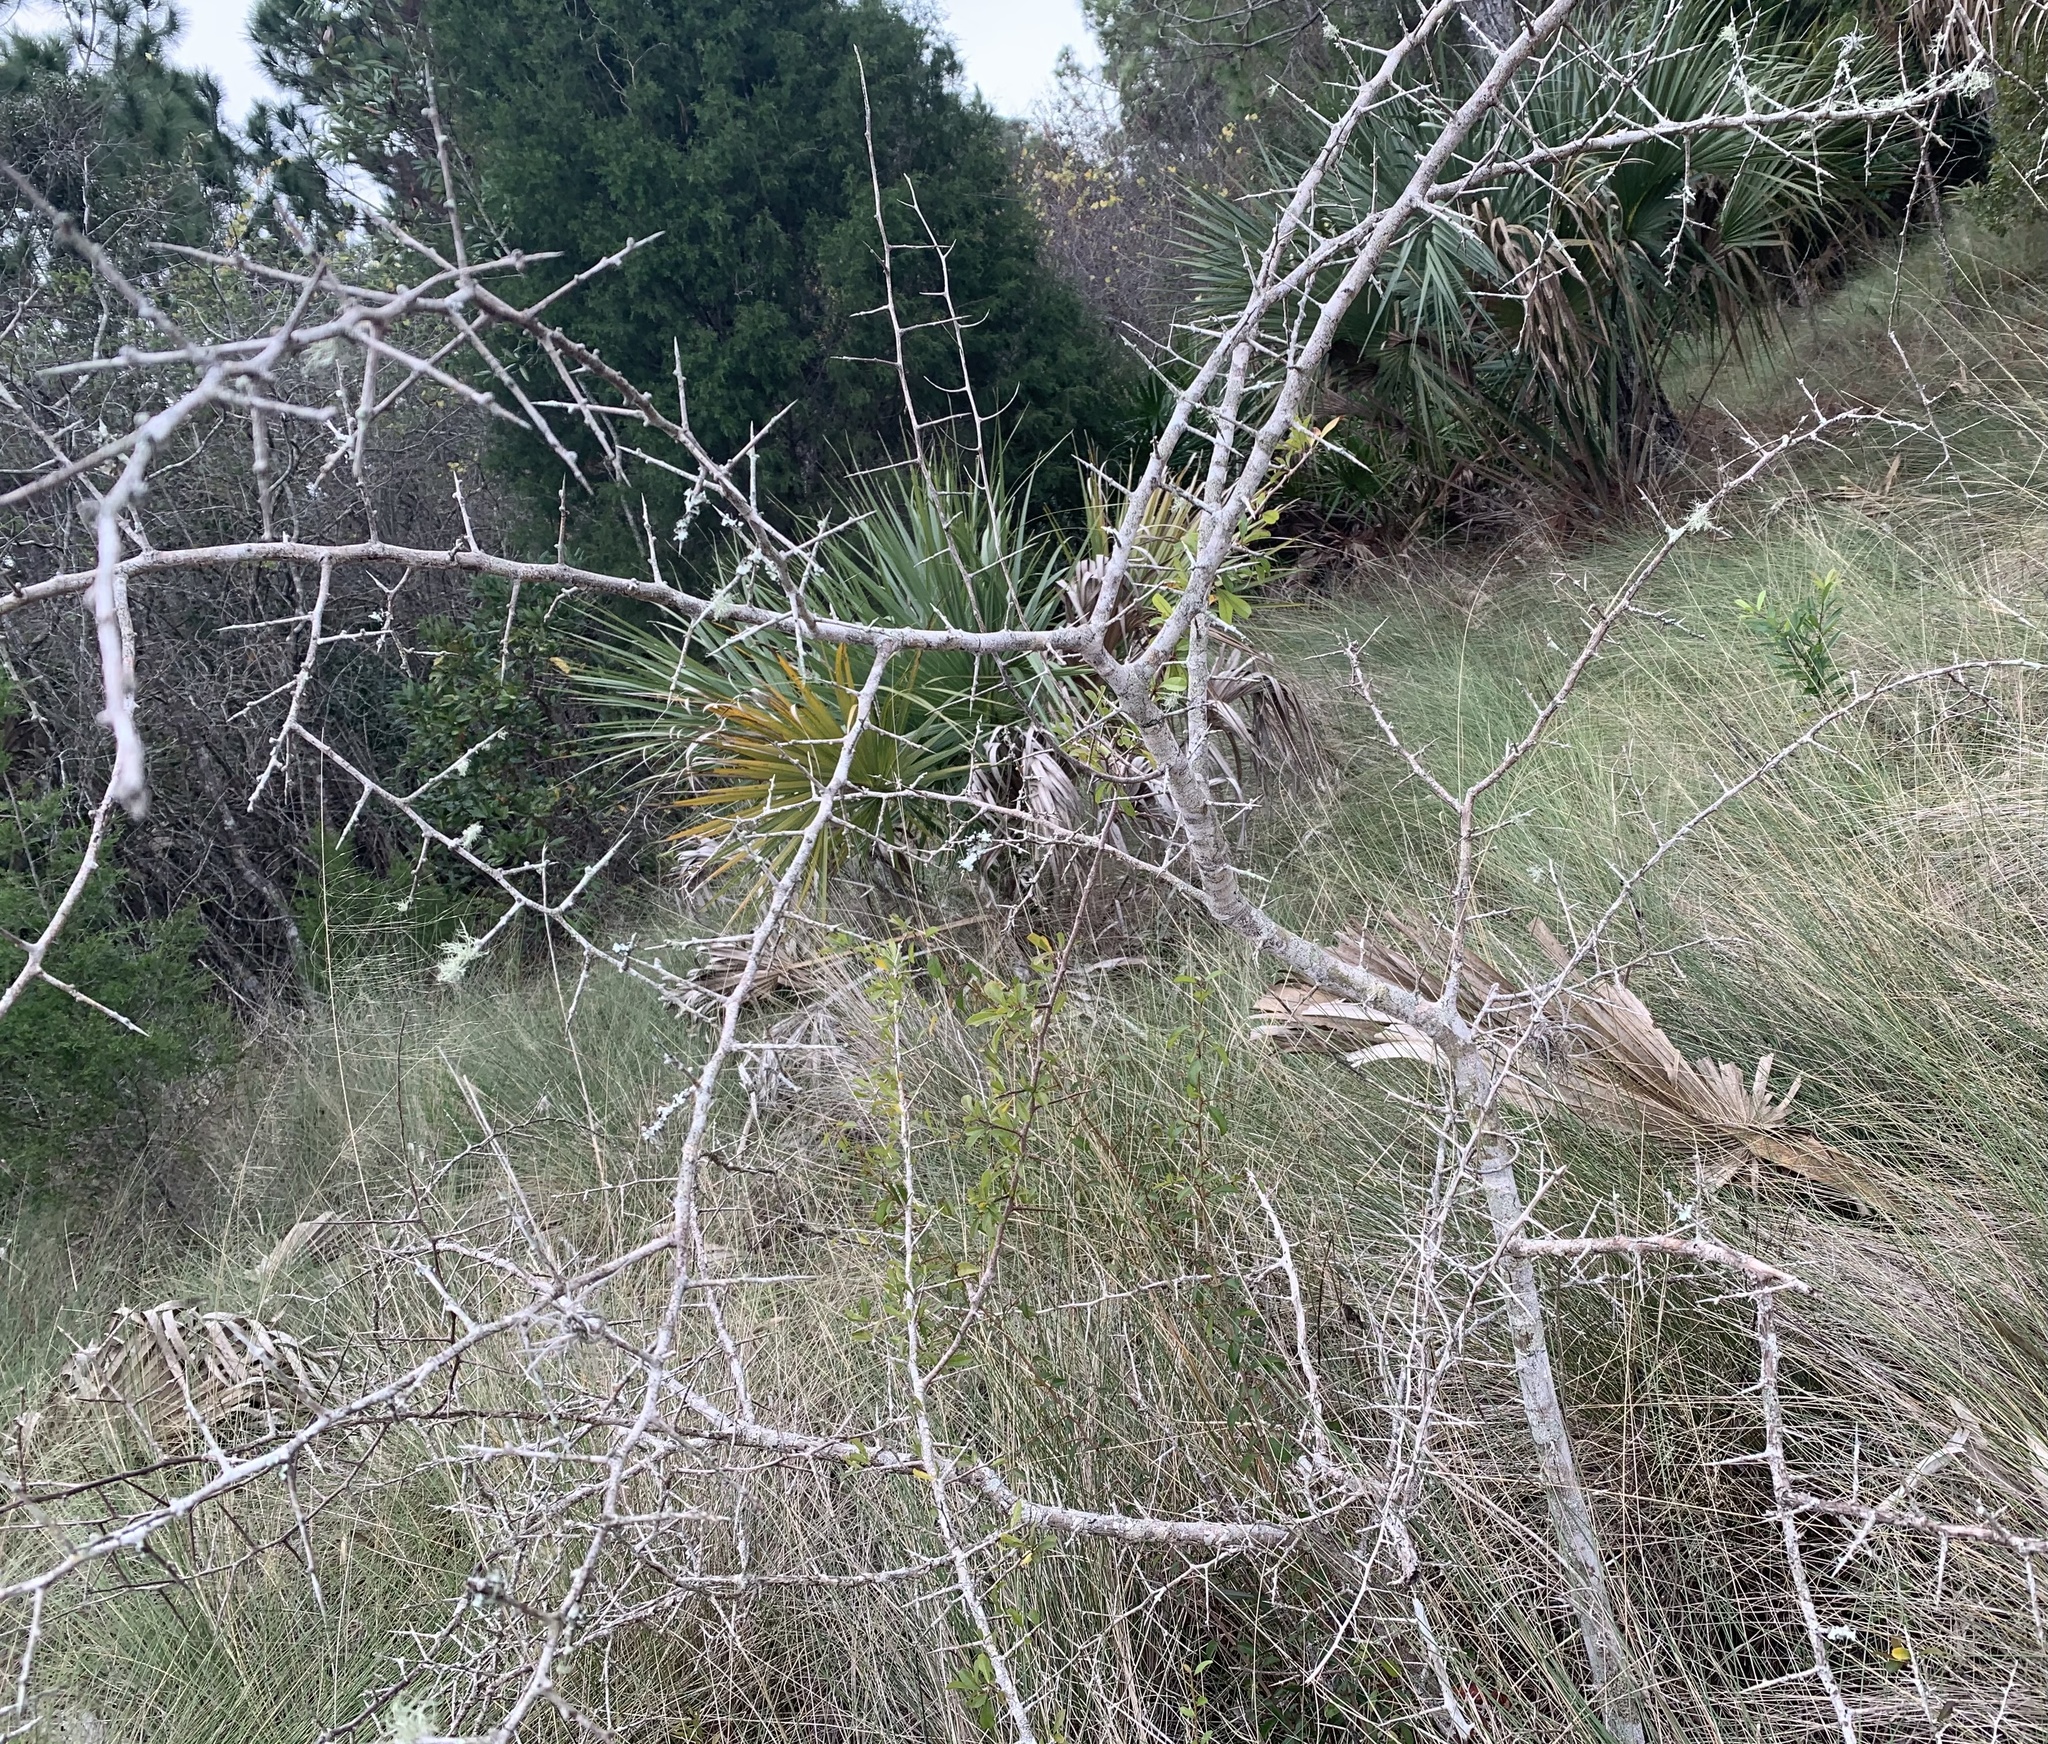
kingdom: Plantae
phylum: Tracheophyta
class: Magnoliopsida
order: Ericales
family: Sapotaceae
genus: Sideroxylon
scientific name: Sideroxylon reclinatum
